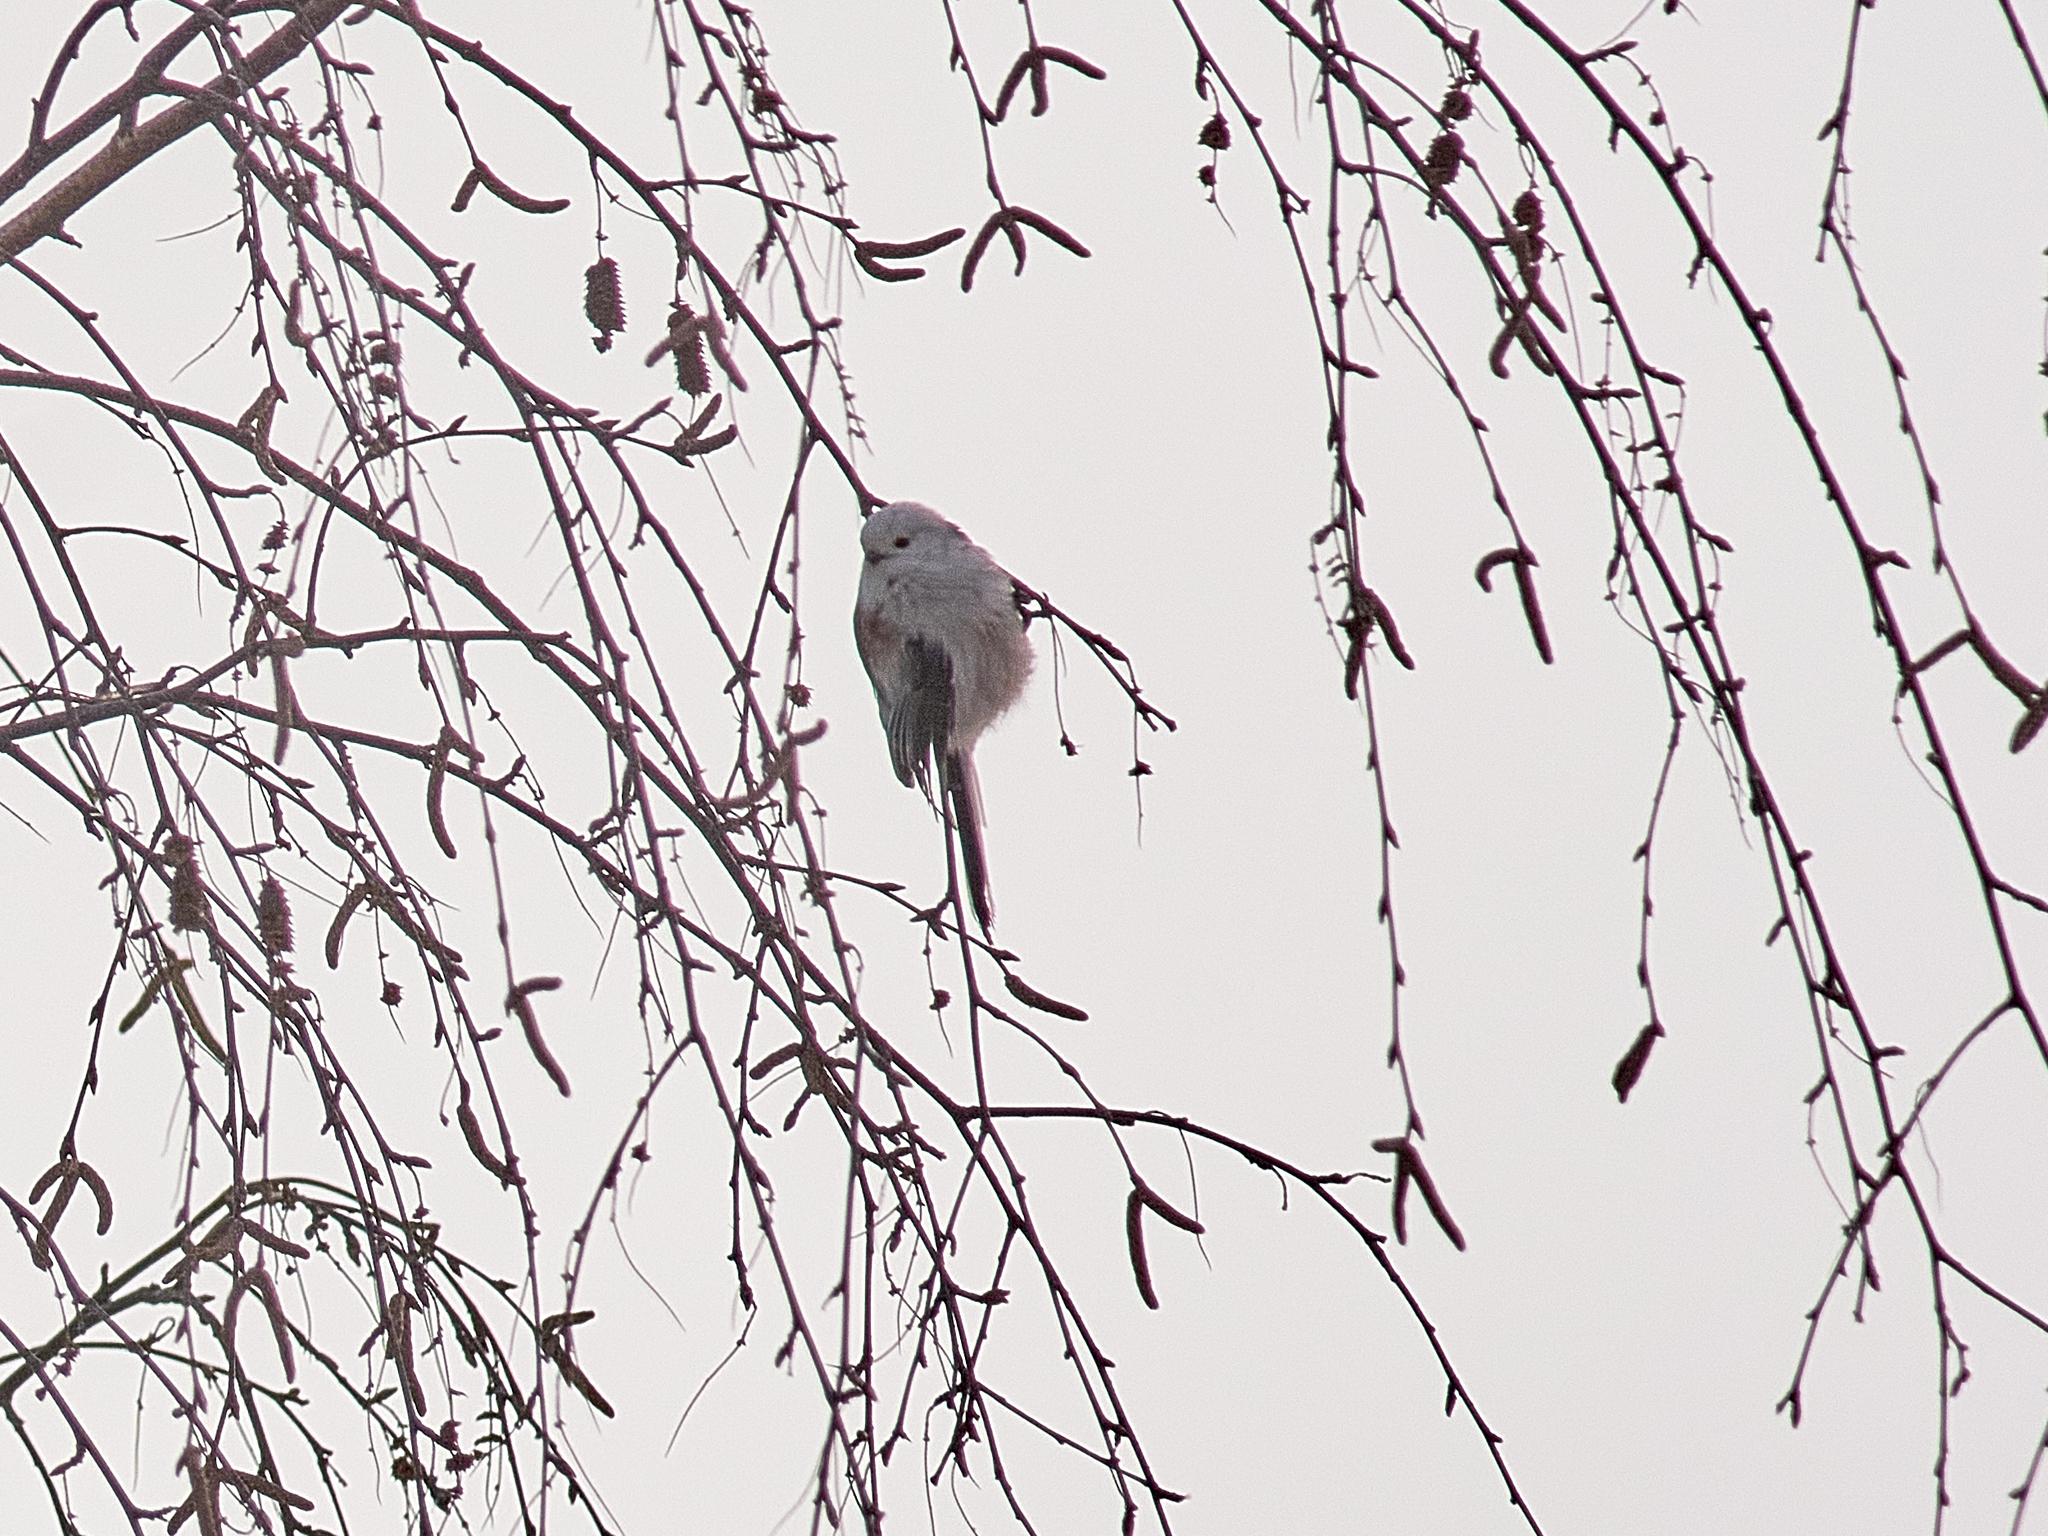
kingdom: Animalia
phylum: Chordata
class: Aves
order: Passeriformes
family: Aegithalidae
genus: Aegithalos
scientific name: Aegithalos caudatus
